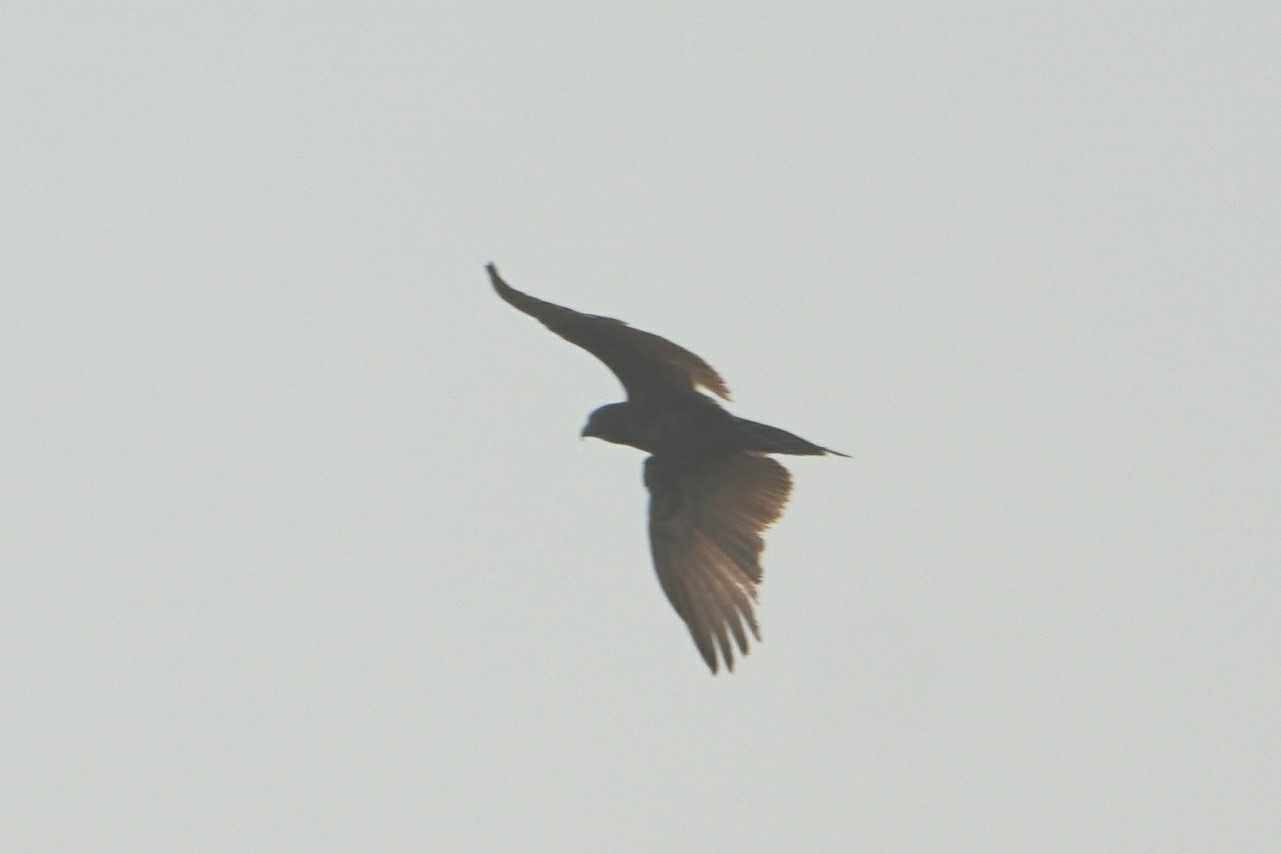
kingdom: Animalia
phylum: Chordata
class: Aves
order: Accipitriformes
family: Accipitridae
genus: Circaetus
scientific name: Circaetus cinereus
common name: Brown snake eagle
